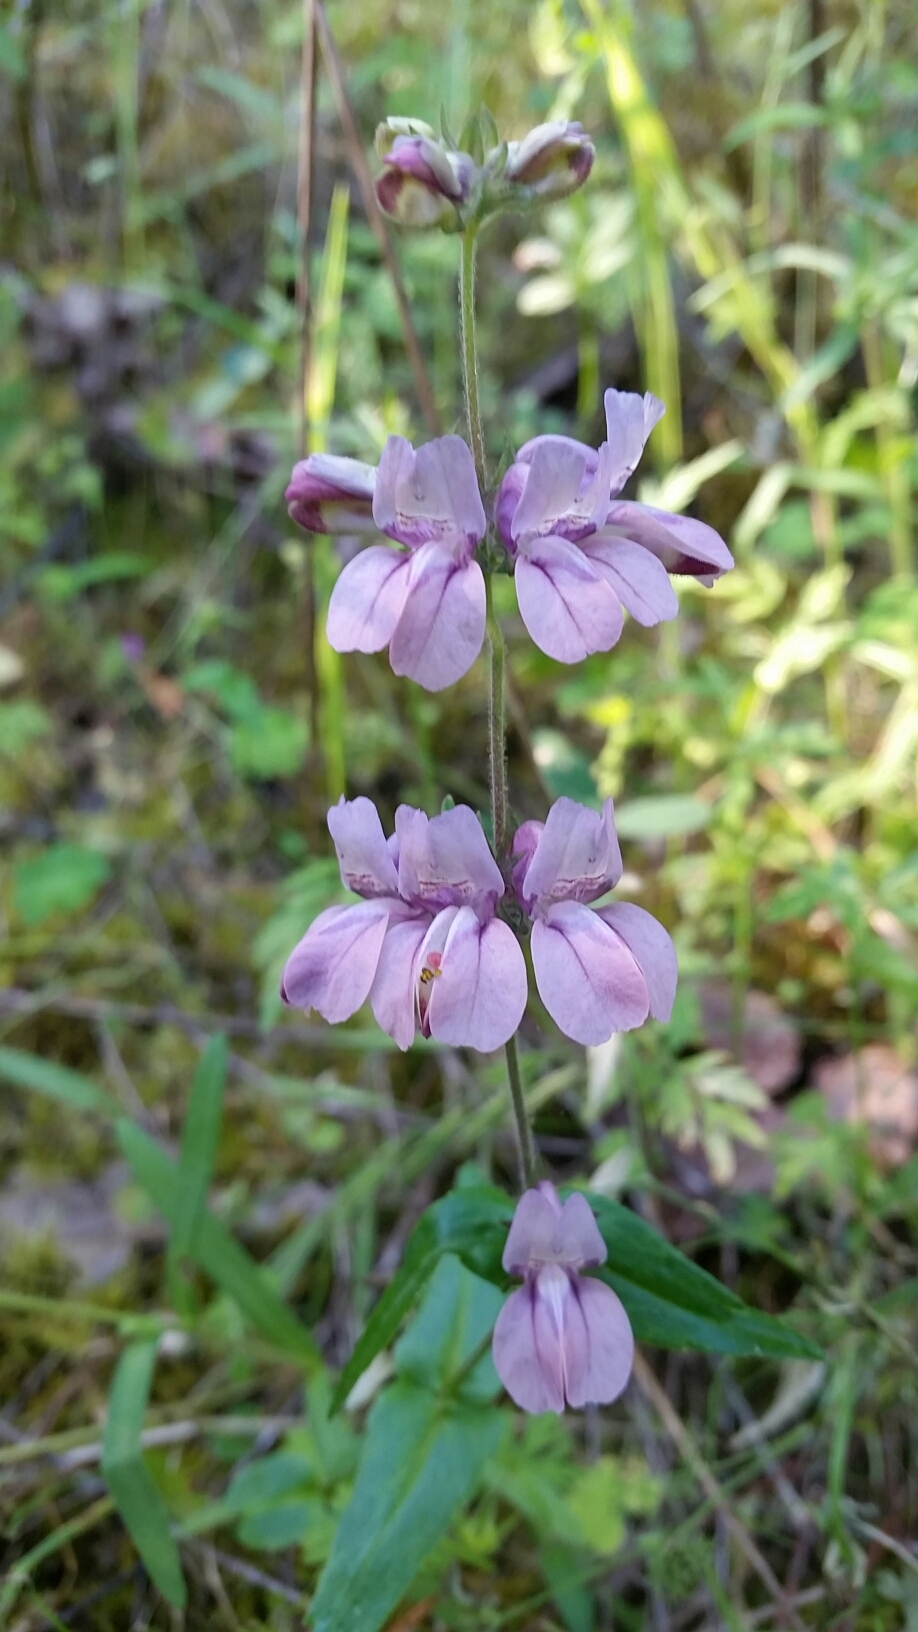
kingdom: Plantae
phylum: Tracheophyta
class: Magnoliopsida
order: Lamiales
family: Plantaginaceae
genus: Collinsia
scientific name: Collinsia heterophylla
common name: Chinese-houses
